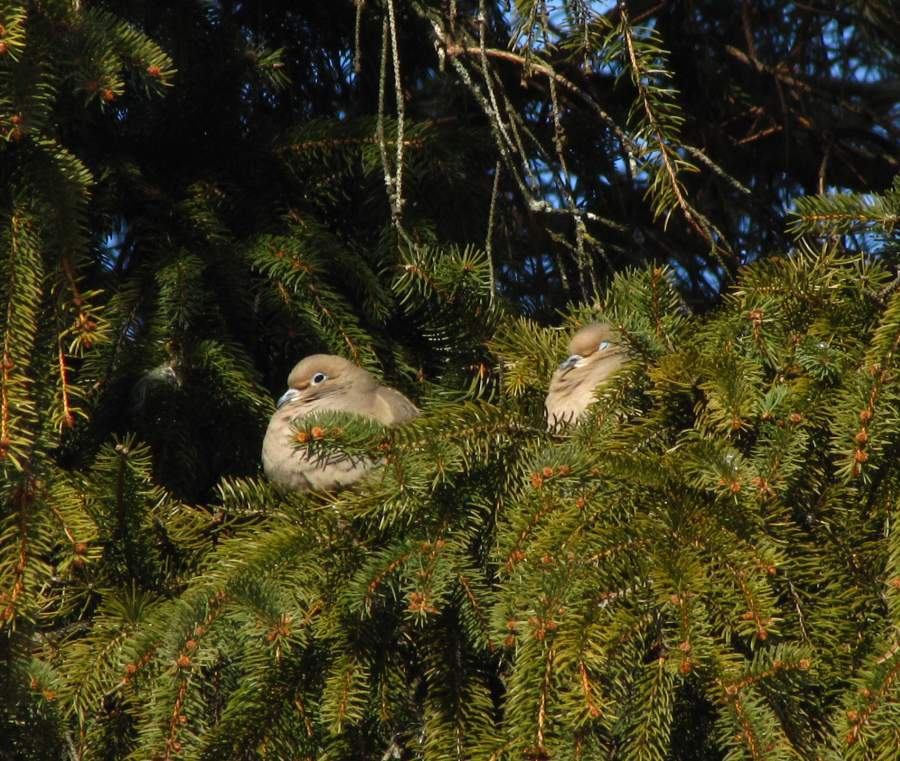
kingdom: Animalia
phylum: Chordata
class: Aves
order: Columbiformes
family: Columbidae
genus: Zenaida
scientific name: Zenaida macroura
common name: Mourning dove
